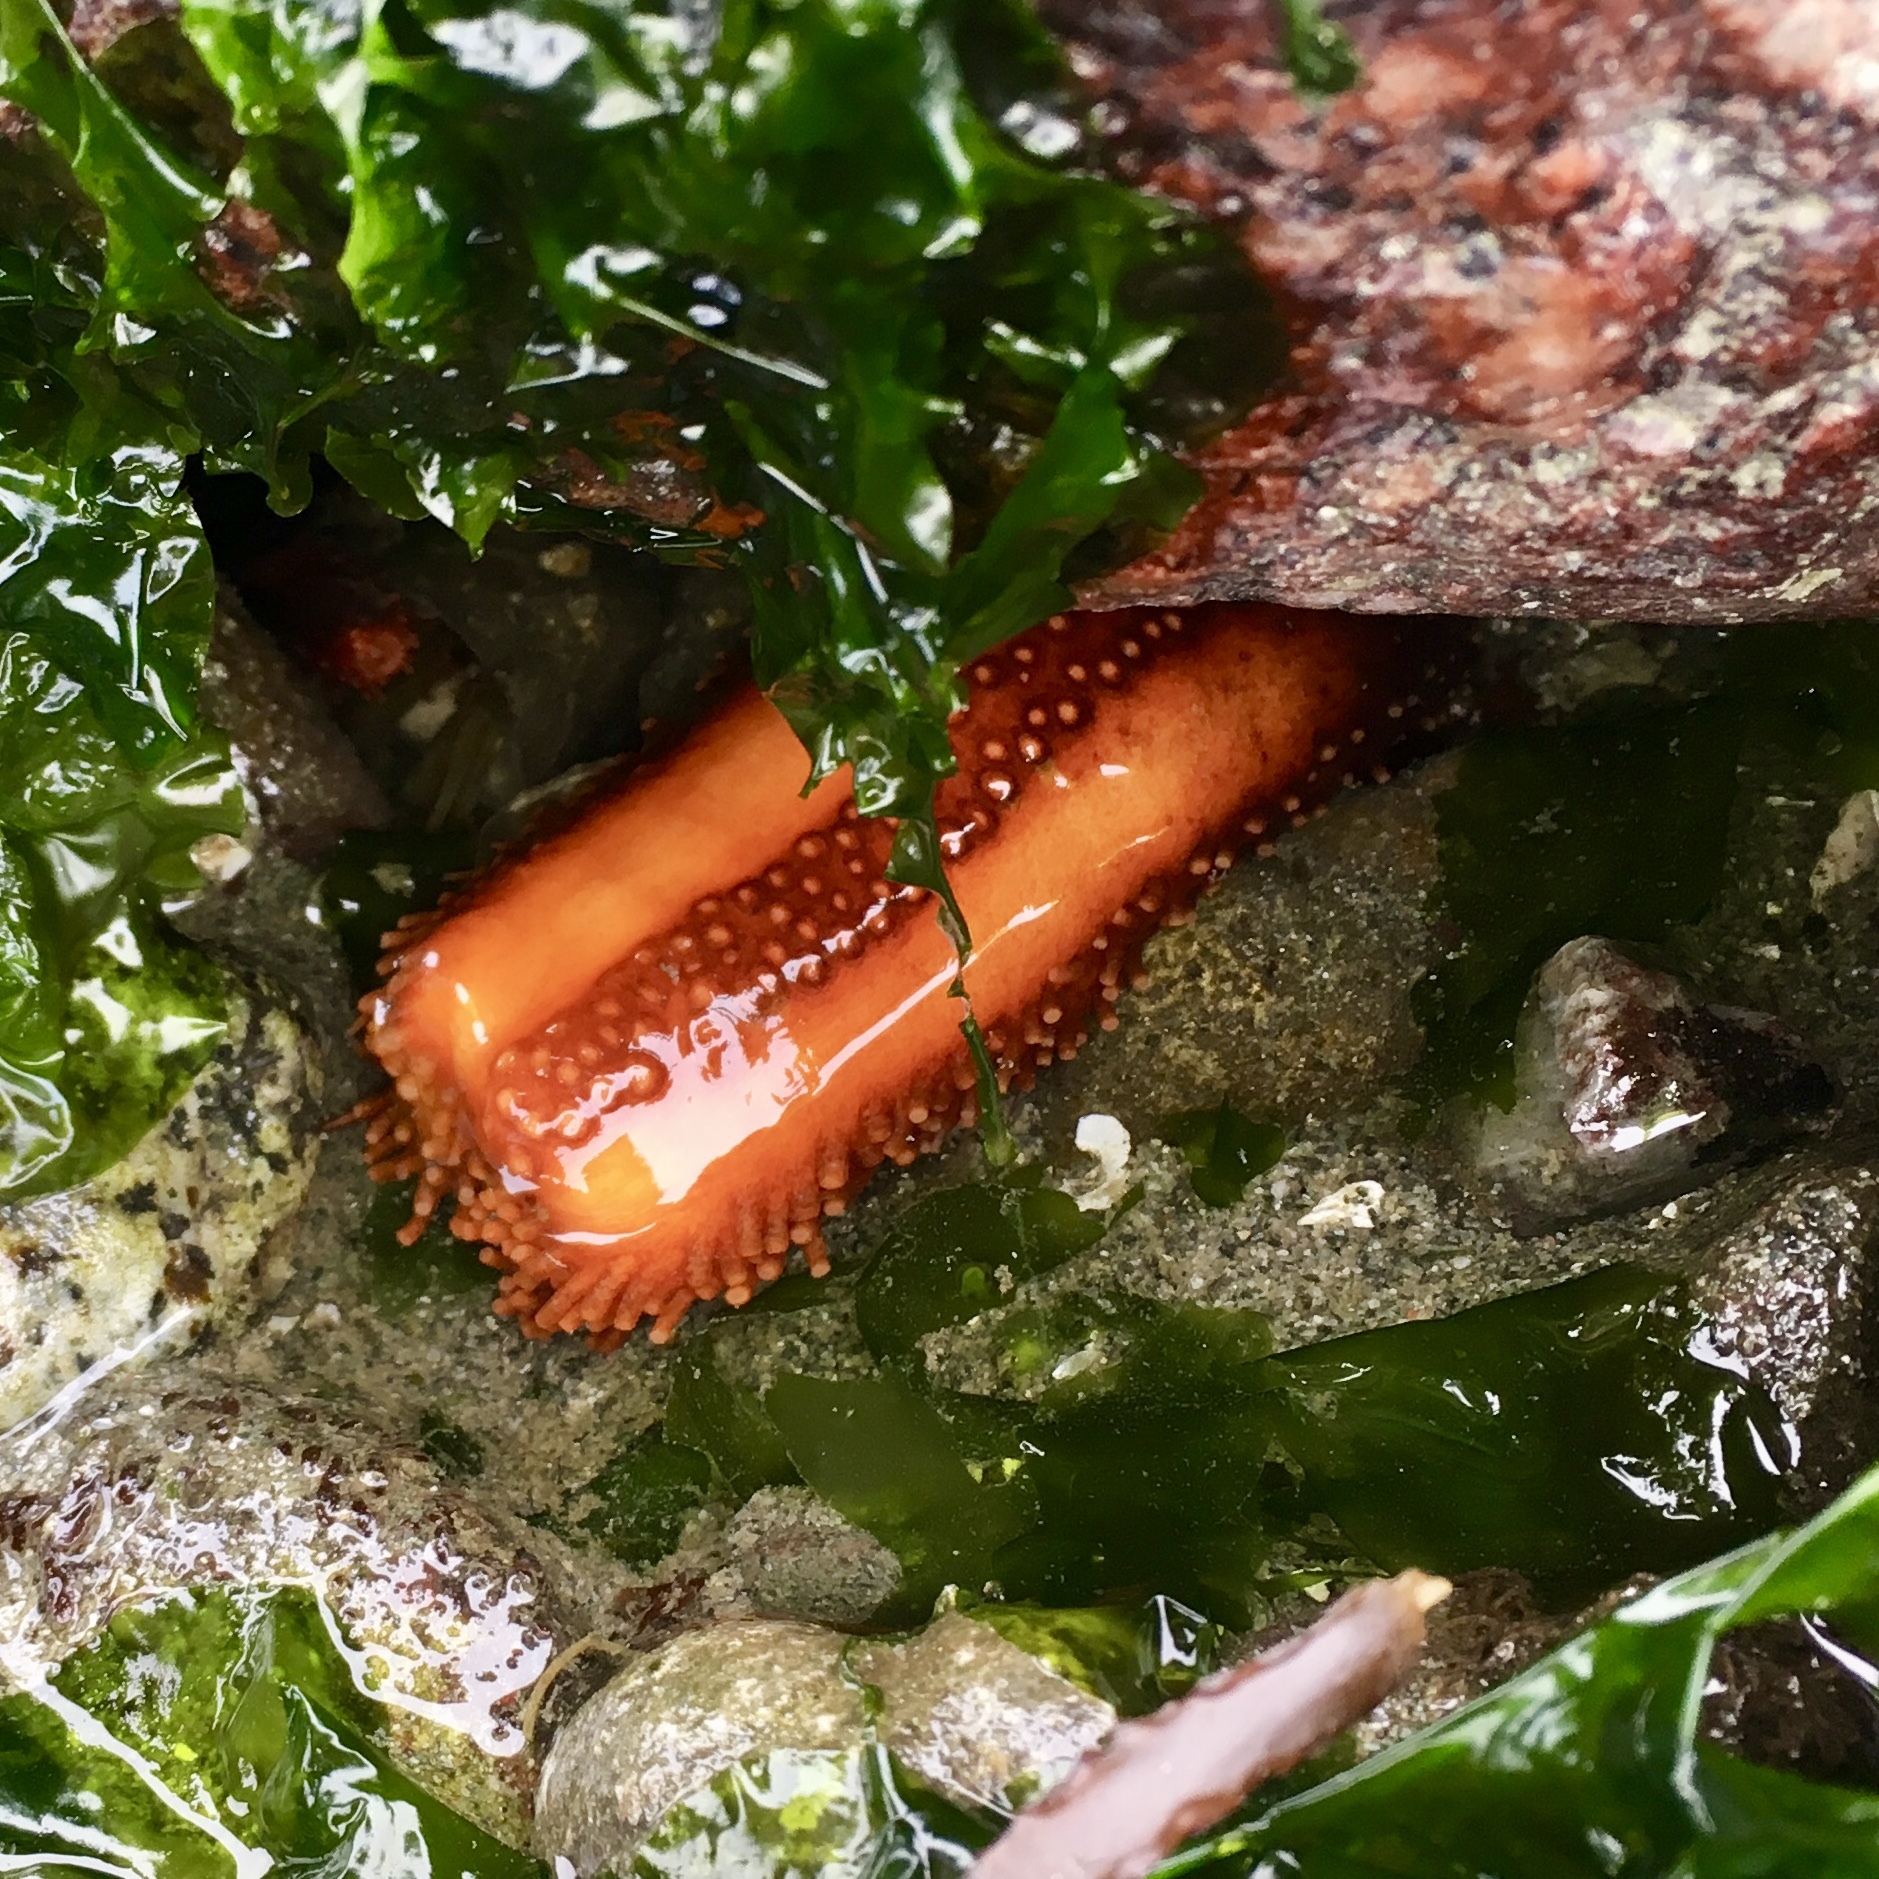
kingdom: Animalia
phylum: Echinodermata
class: Holothuroidea
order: Dendrochirotida
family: Cucumariidae
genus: Cucumaria
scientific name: Cucumaria miniata
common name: Orange sea cucumber
